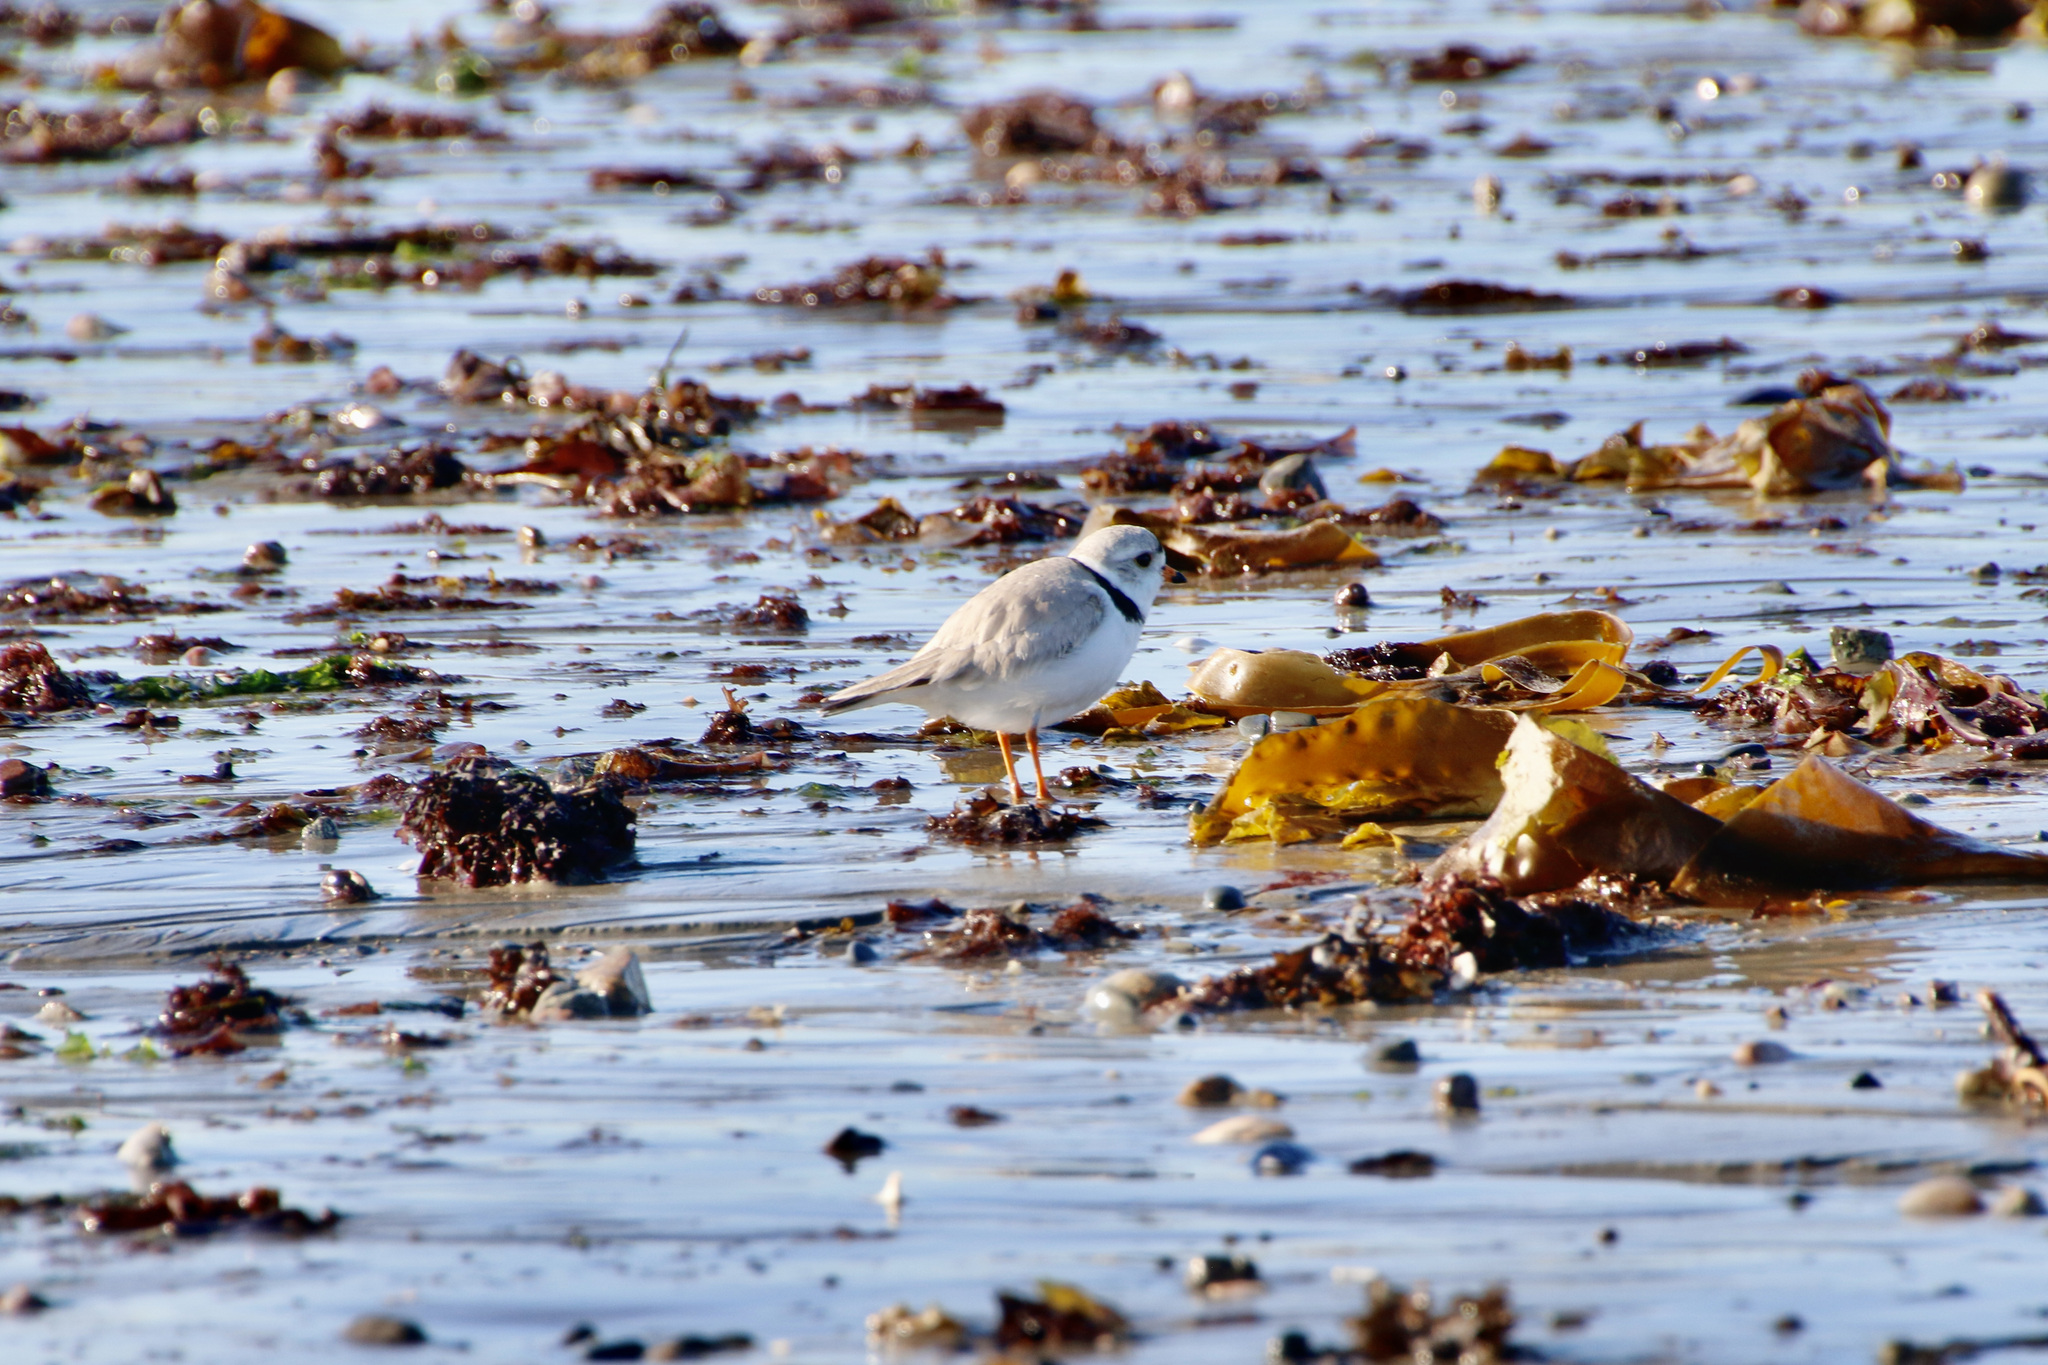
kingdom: Animalia
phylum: Chordata
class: Aves
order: Charadriiformes
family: Charadriidae
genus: Charadrius
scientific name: Charadrius melodus
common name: Piping plover
